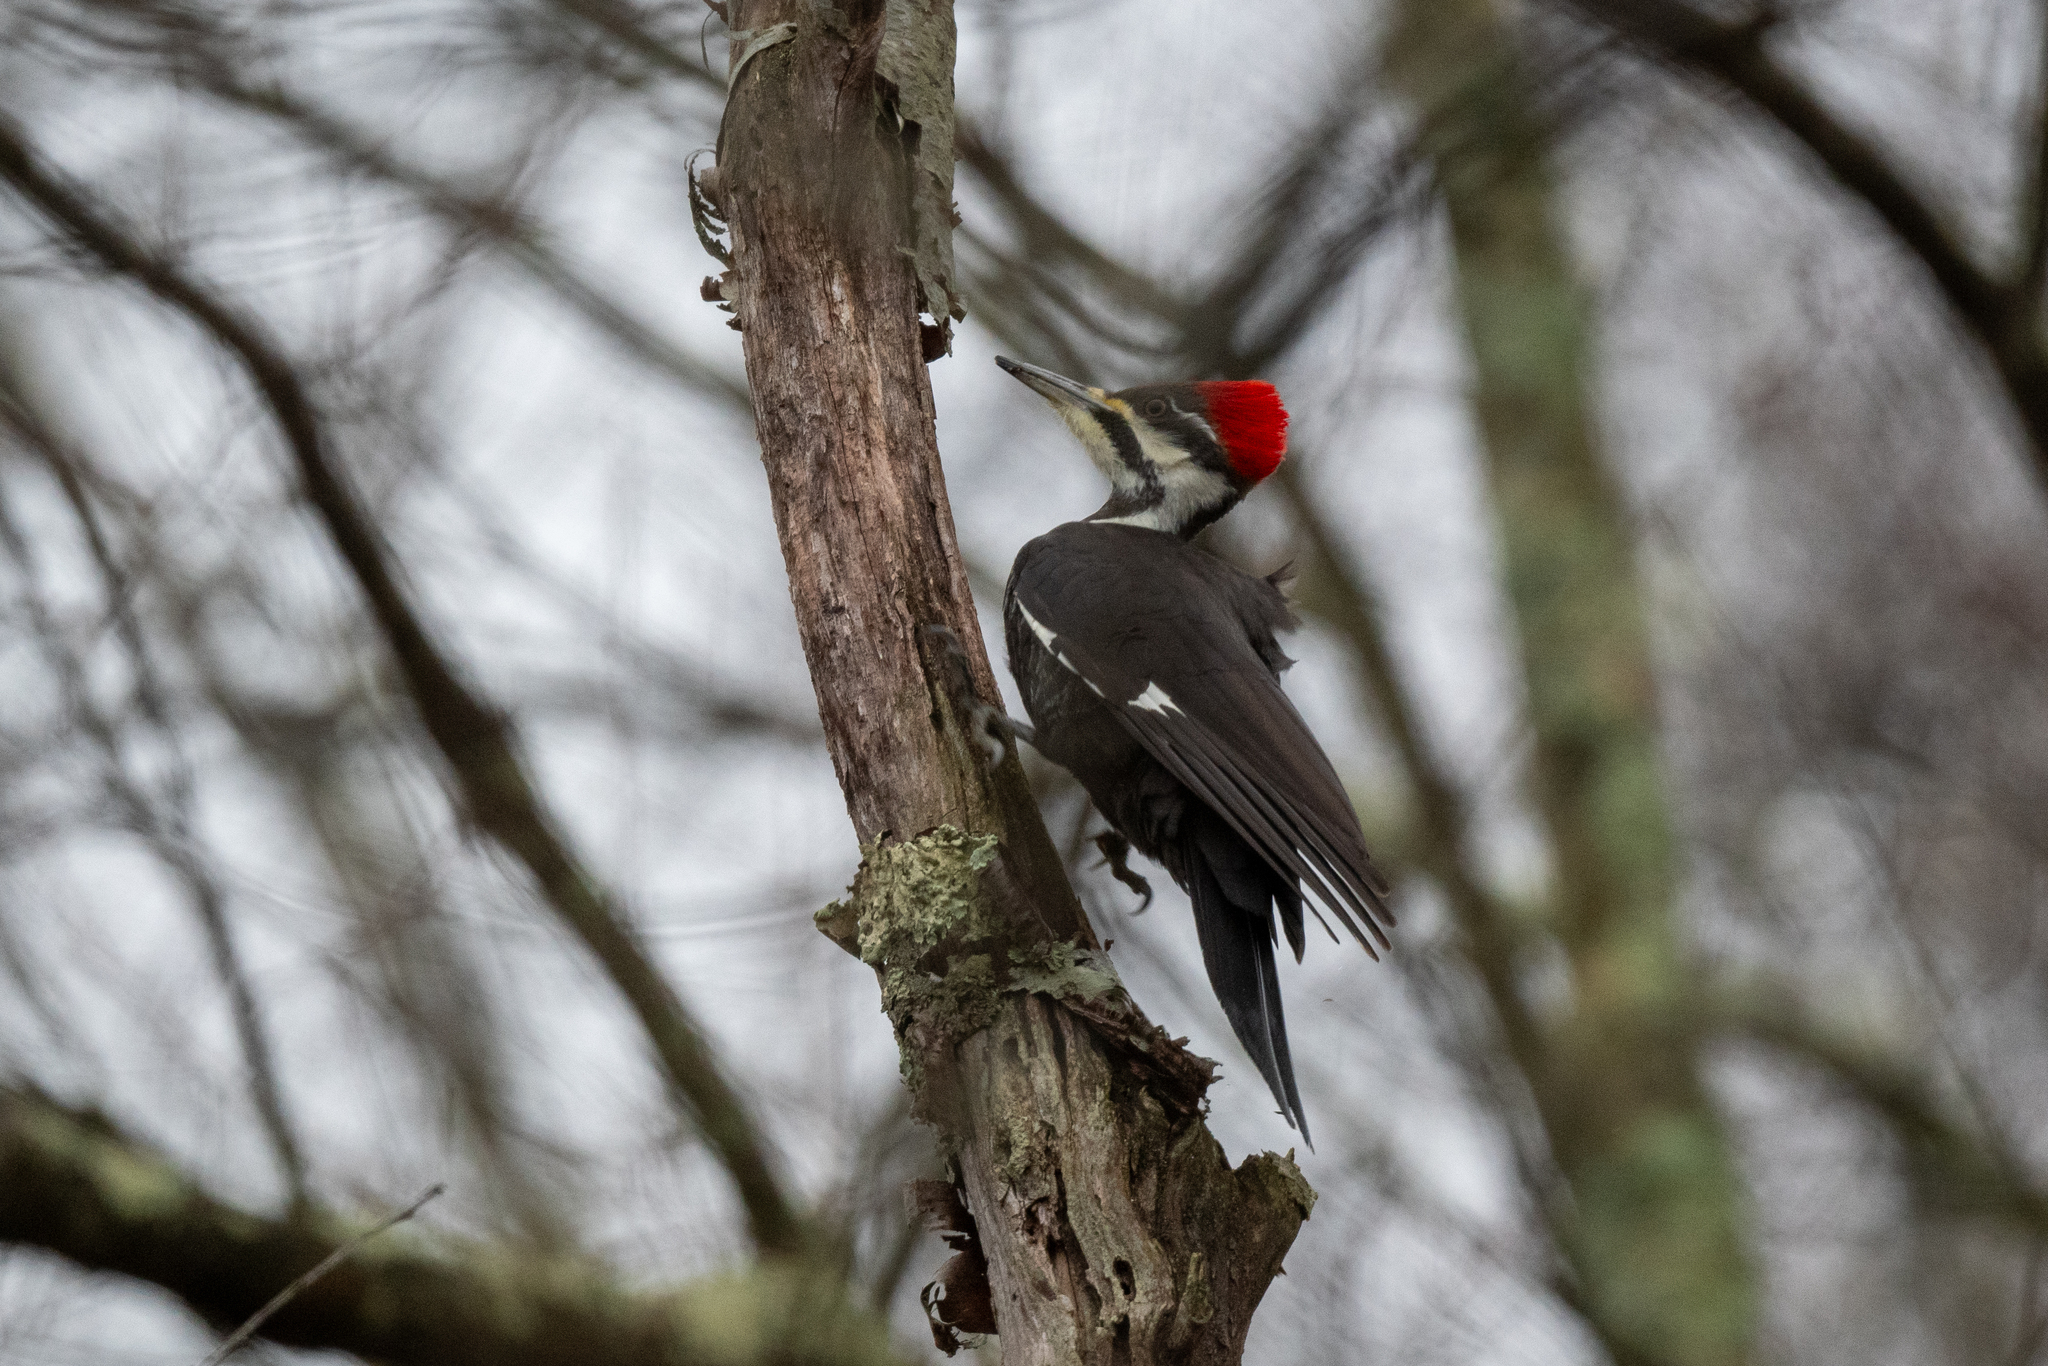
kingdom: Animalia
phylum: Chordata
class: Aves
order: Piciformes
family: Picidae
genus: Dryocopus
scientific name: Dryocopus pileatus
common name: Pileated woodpecker
